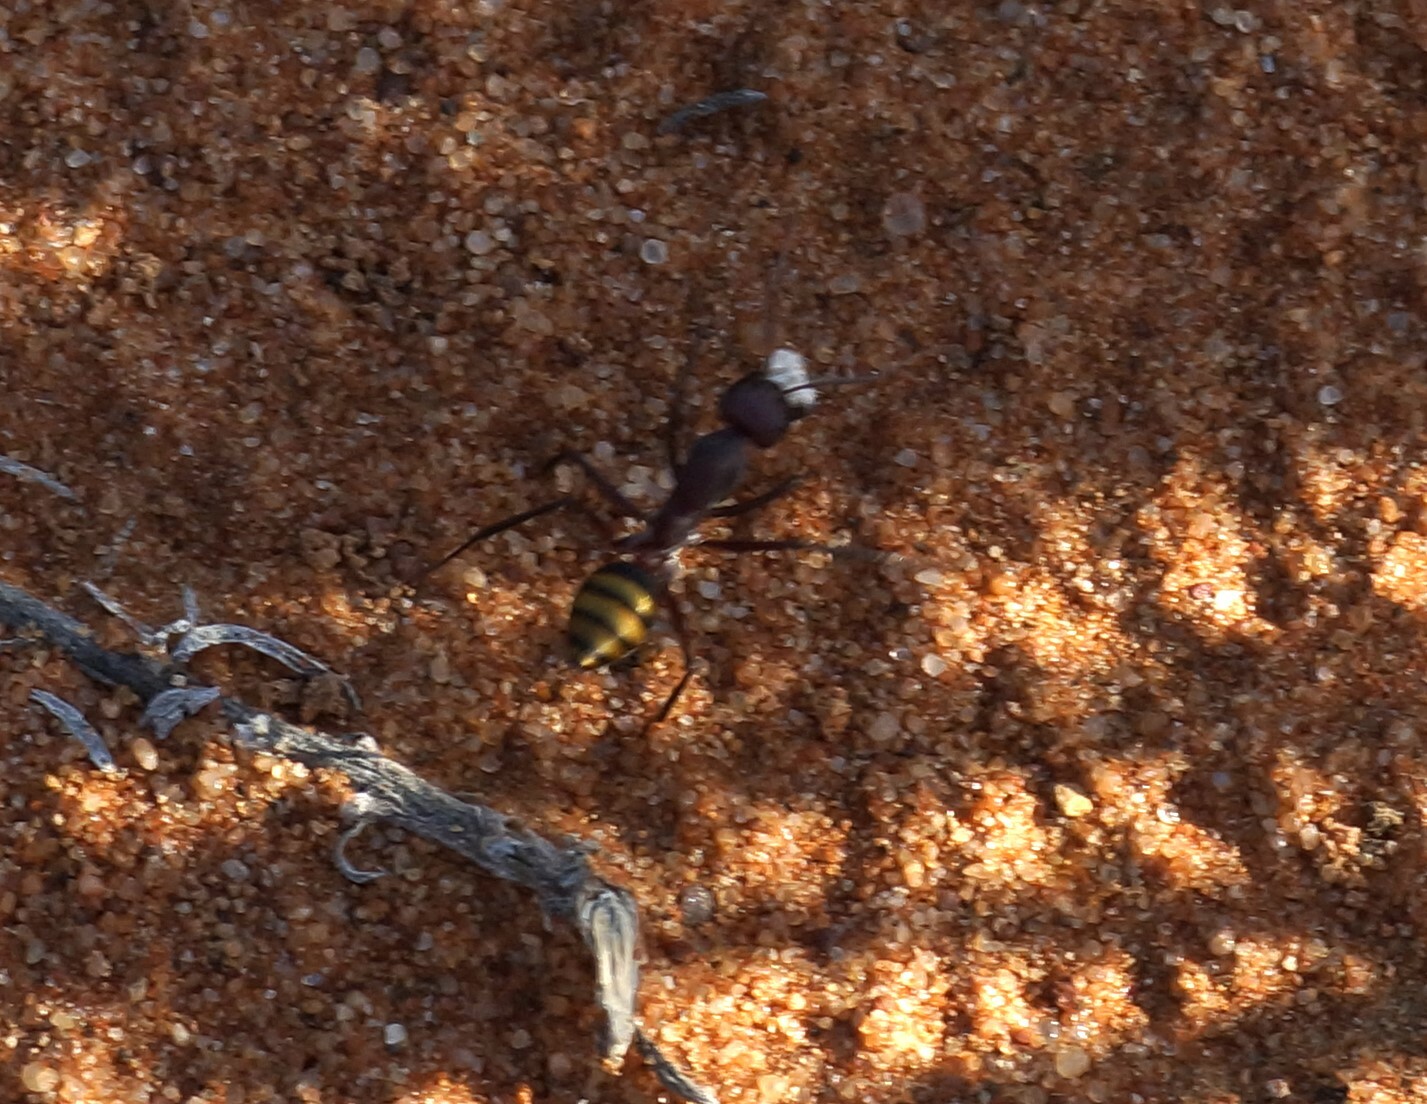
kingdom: Animalia
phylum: Arthropoda
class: Insecta
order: Hymenoptera
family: Formicidae
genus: Camponotus
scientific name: Camponotus aurocinctus
